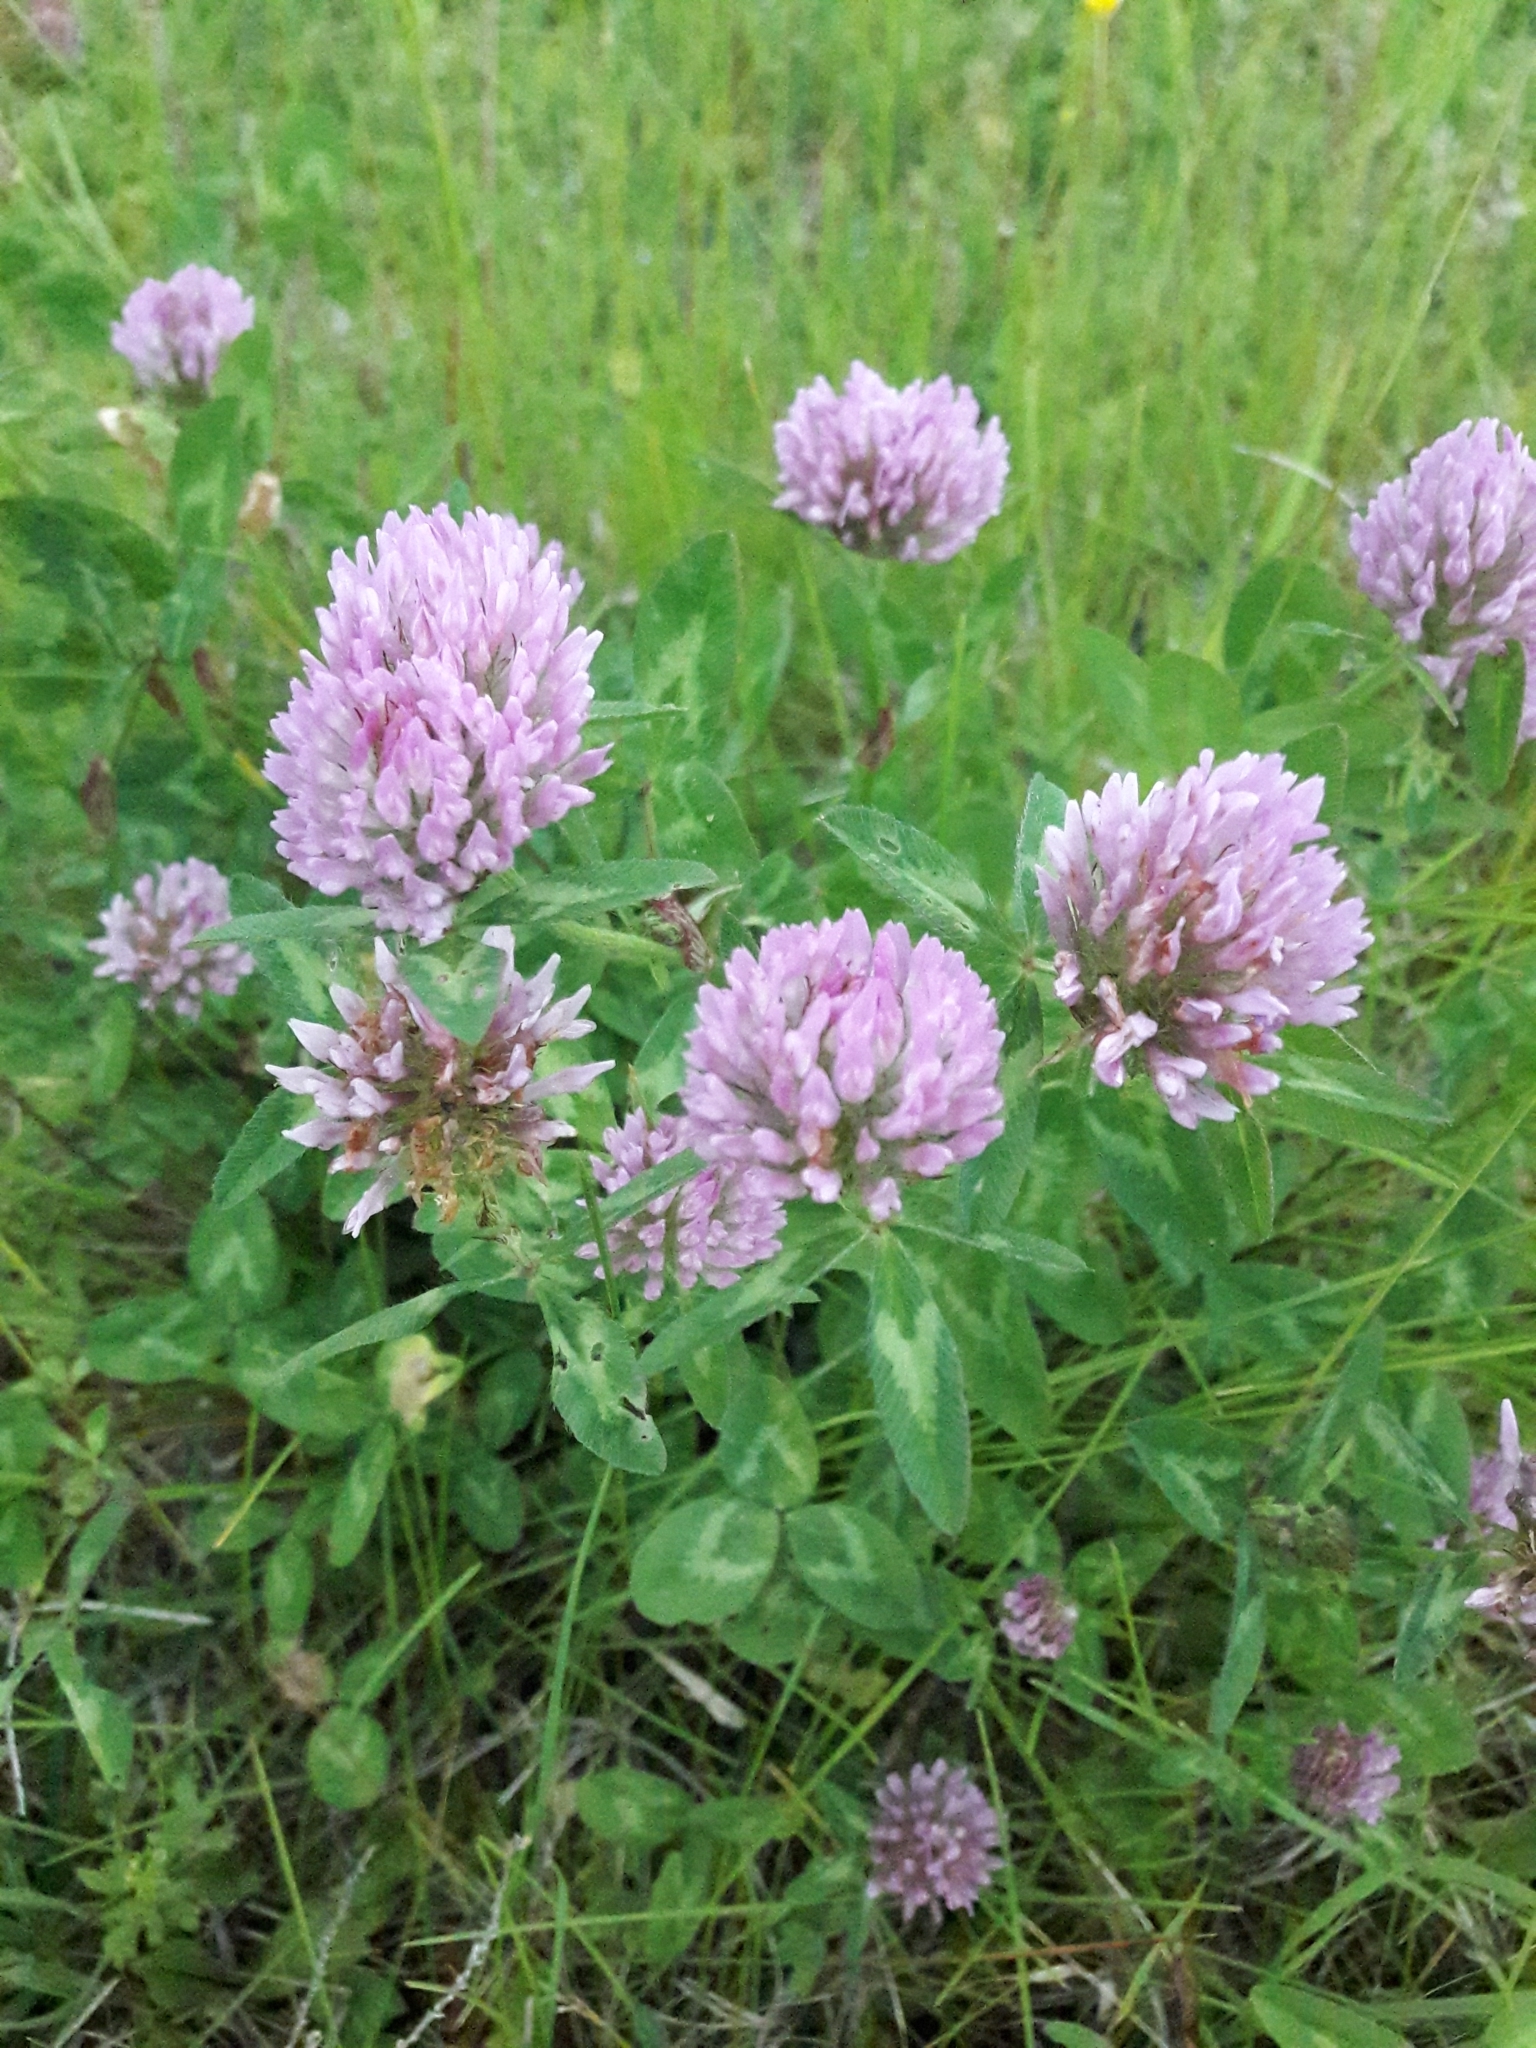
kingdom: Plantae
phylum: Tracheophyta
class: Magnoliopsida
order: Fabales
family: Fabaceae
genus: Trifolium
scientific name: Trifolium pratense
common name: Red clover
